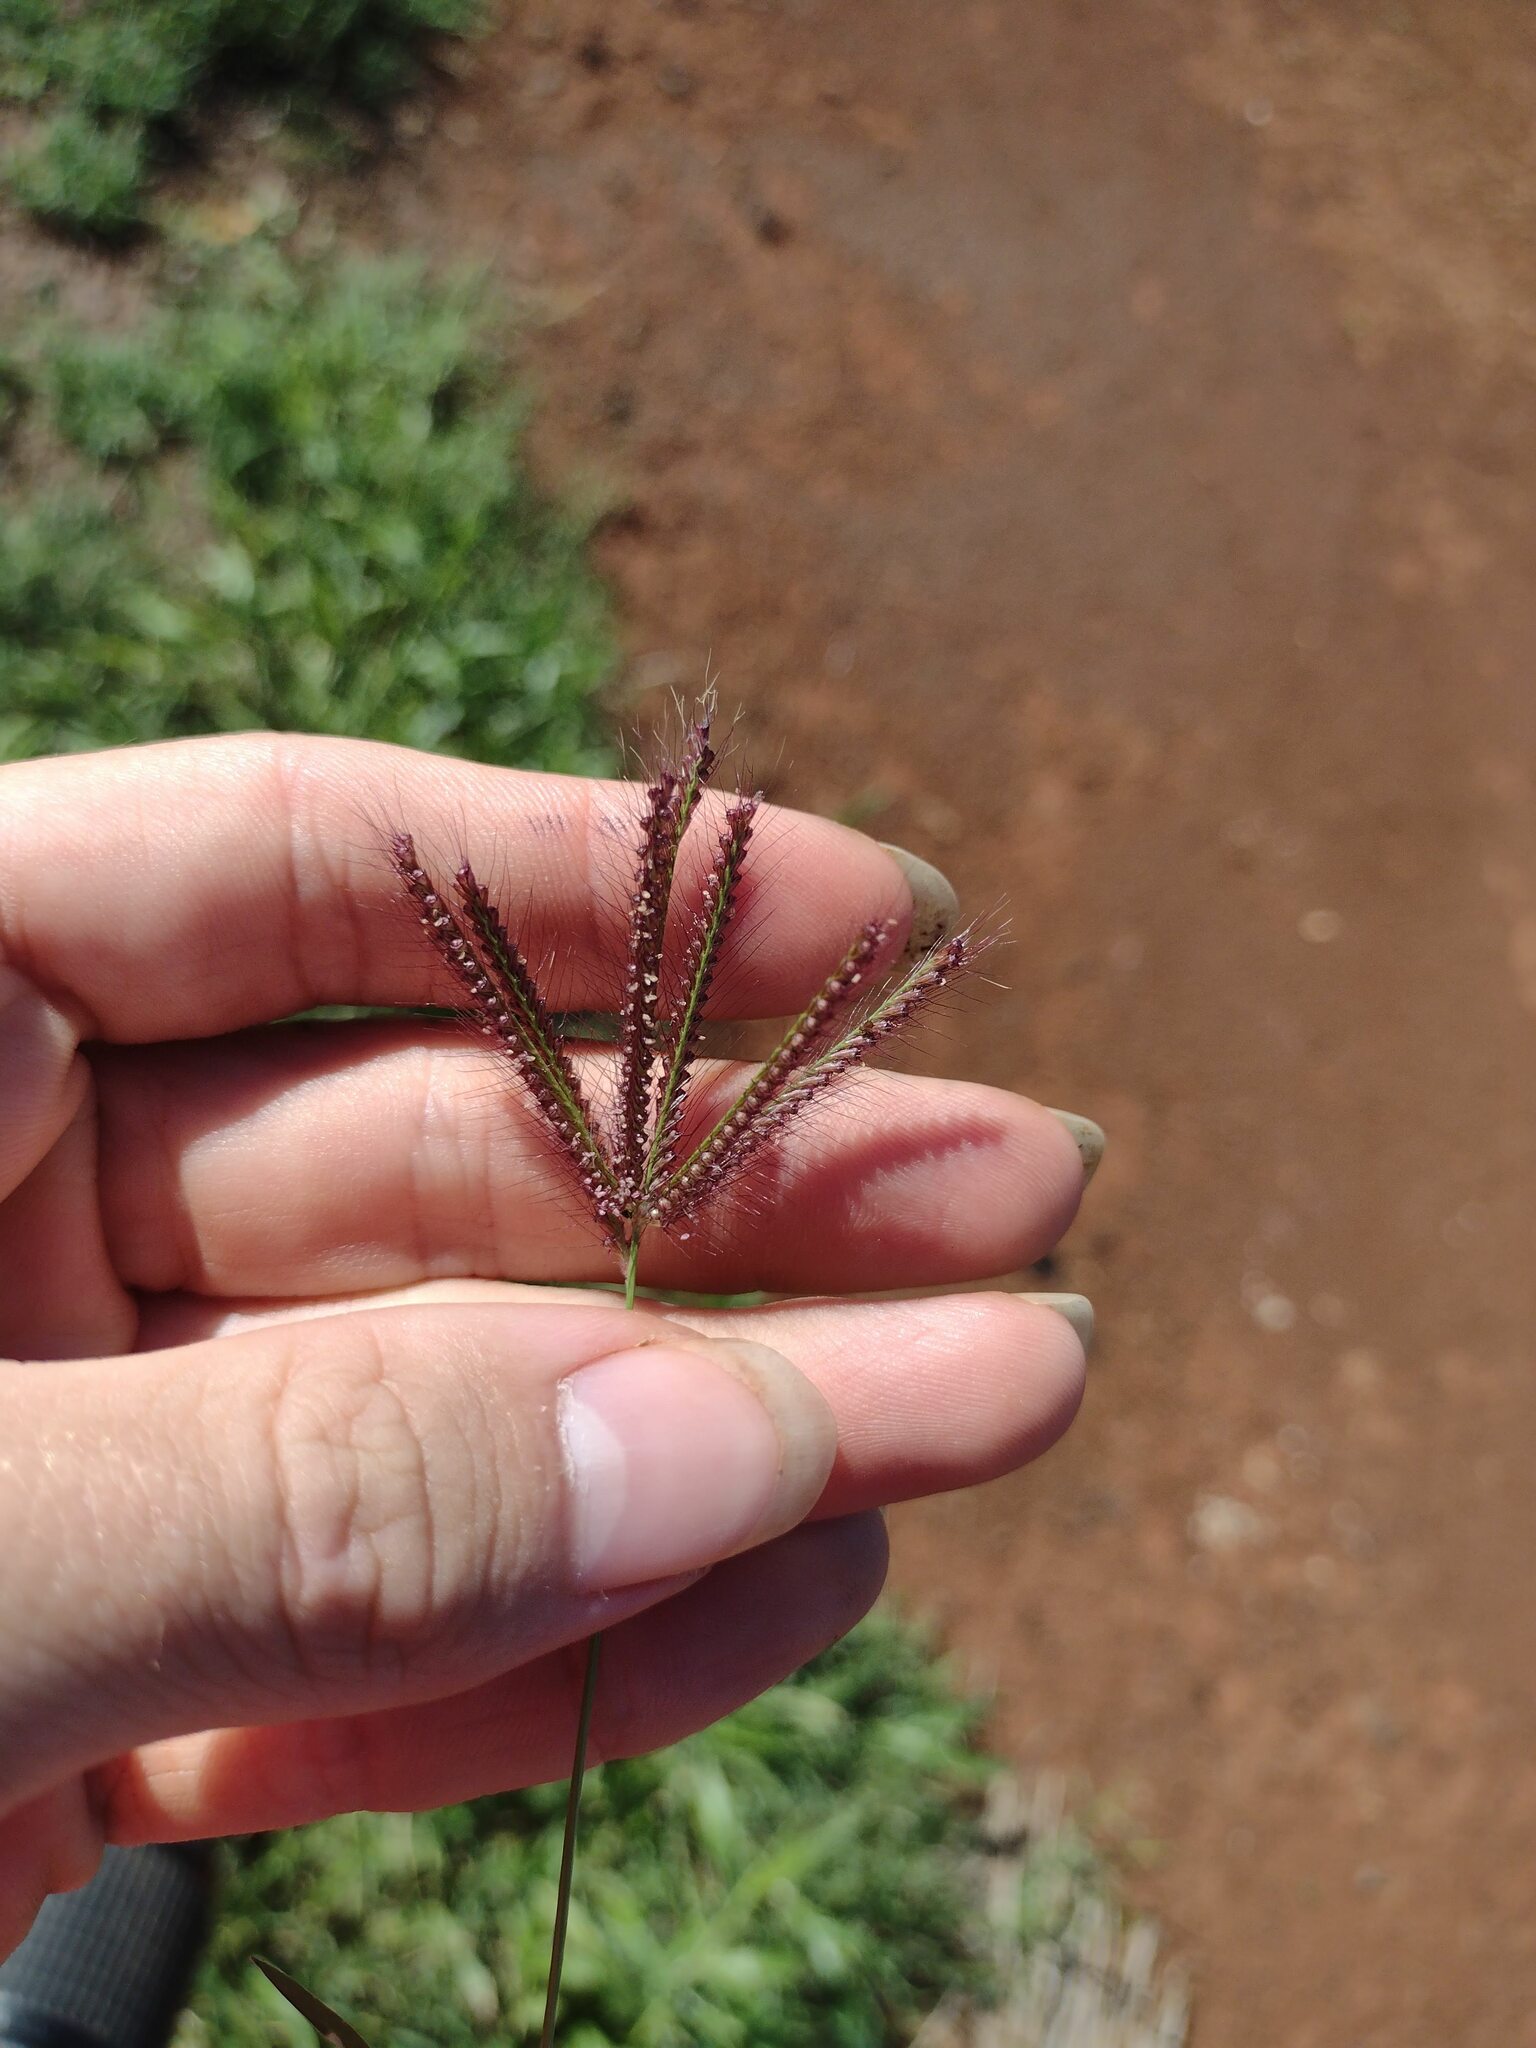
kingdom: Plantae
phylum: Tracheophyta
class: Liliopsida
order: Poales
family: Poaceae
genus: Chloris
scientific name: Chloris barbata
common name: Swollen fingergrass
